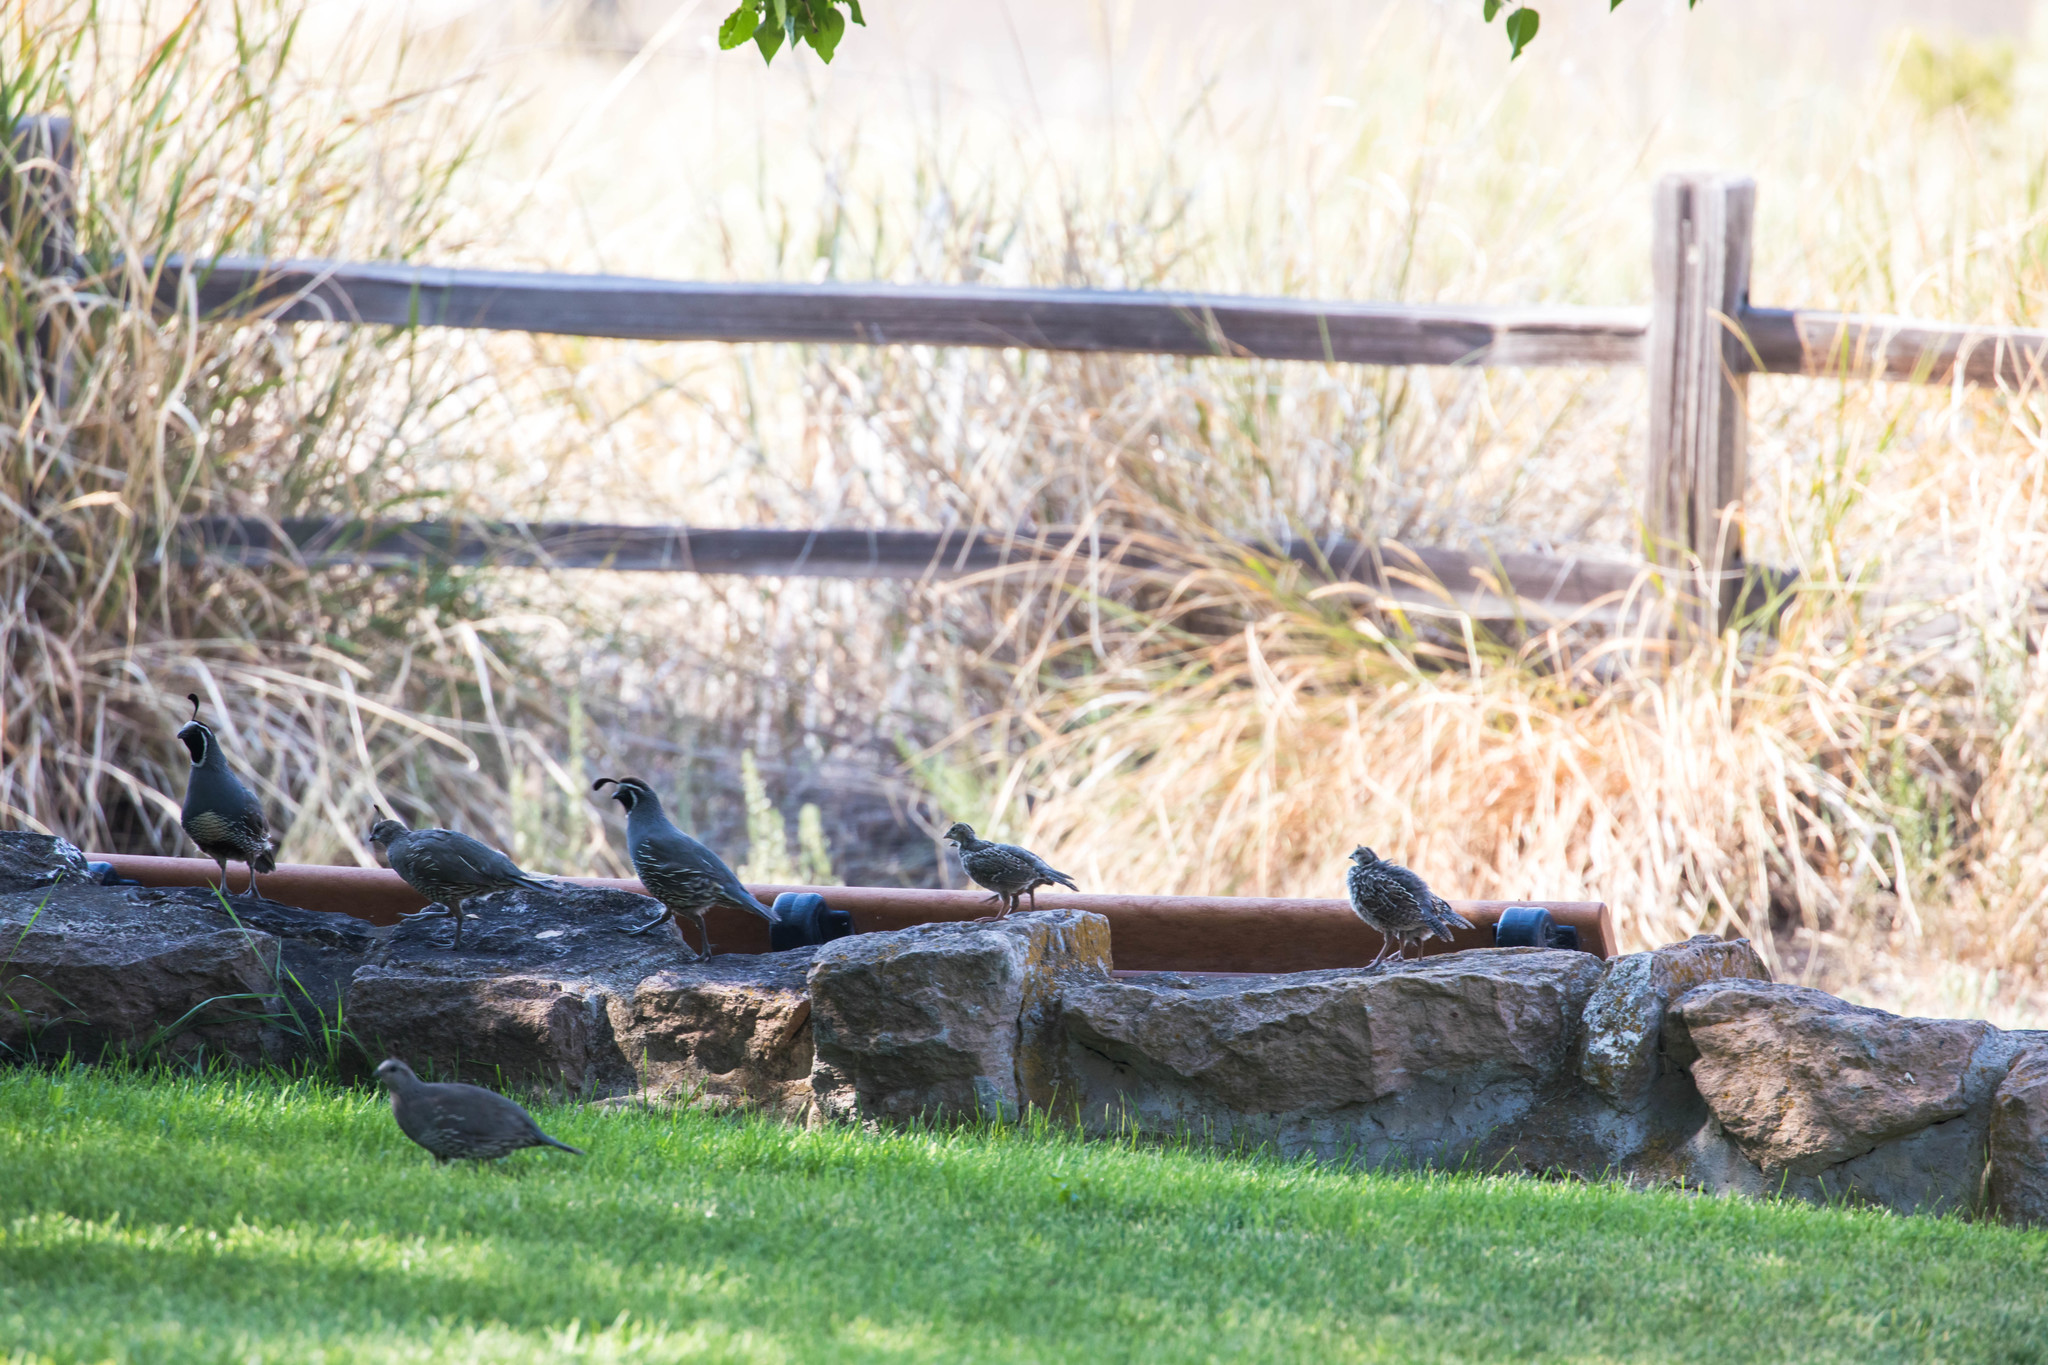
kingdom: Animalia
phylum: Chordata
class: Aves
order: Galliformes
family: Odontophoridae
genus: Callipepla
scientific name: Callipepla californica
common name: California quail
